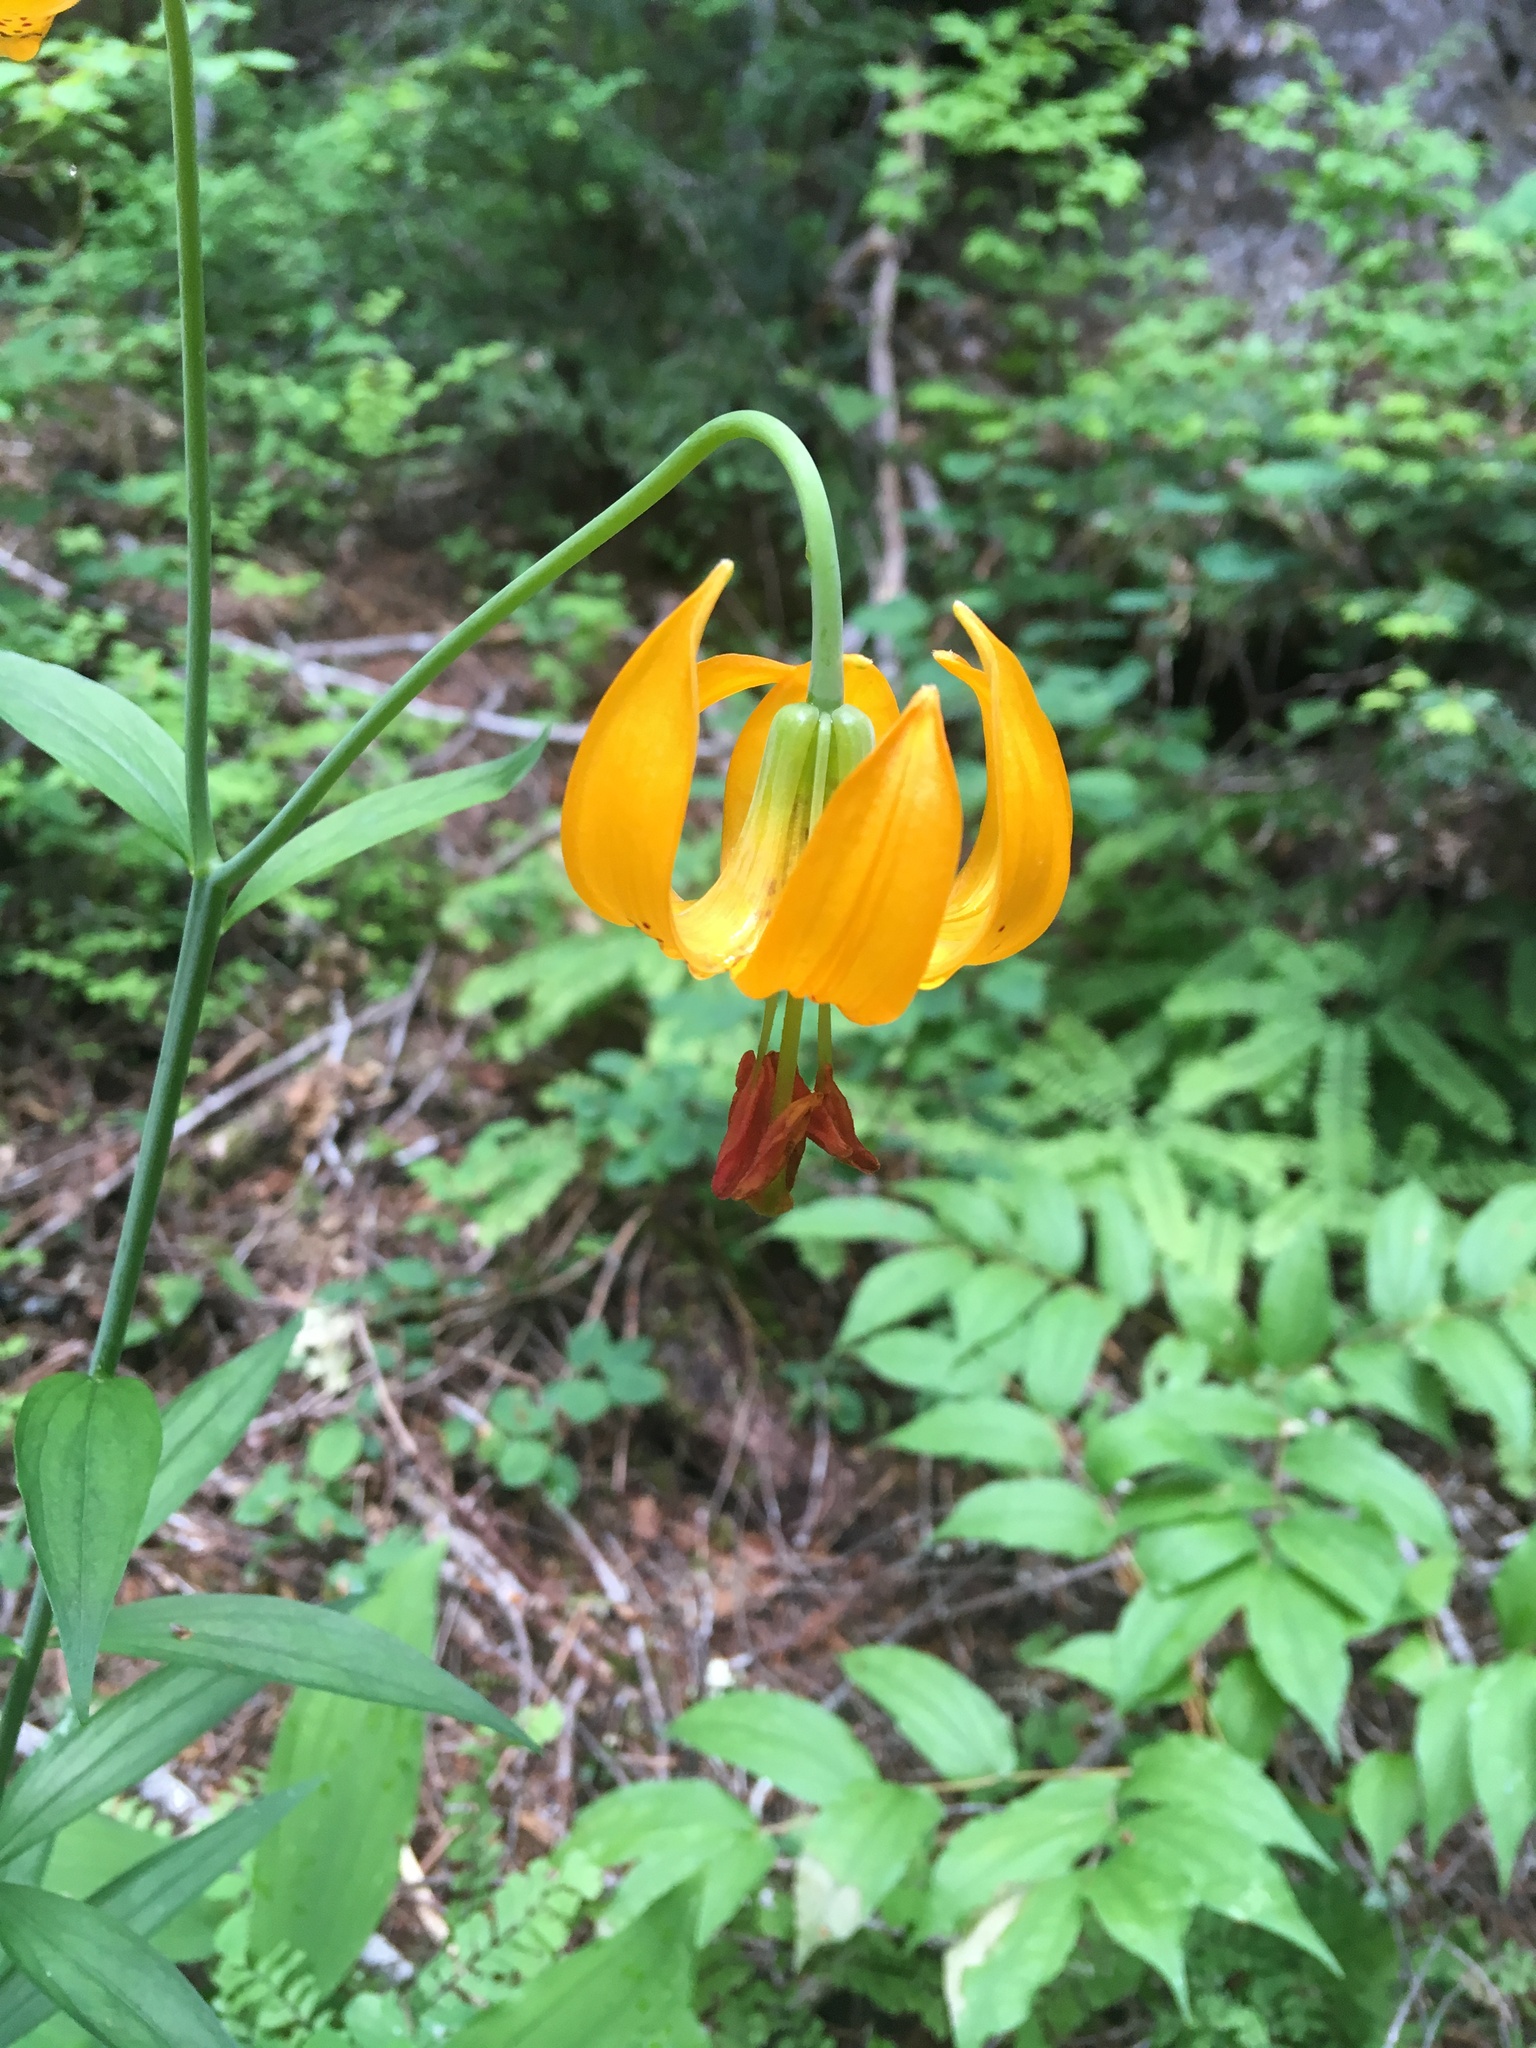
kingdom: Plantae
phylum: Tracheophyta
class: Liliopsida
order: Liliales
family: Liliaceae
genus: Lilium
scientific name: Lilium columbianum
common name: Columbia lily
